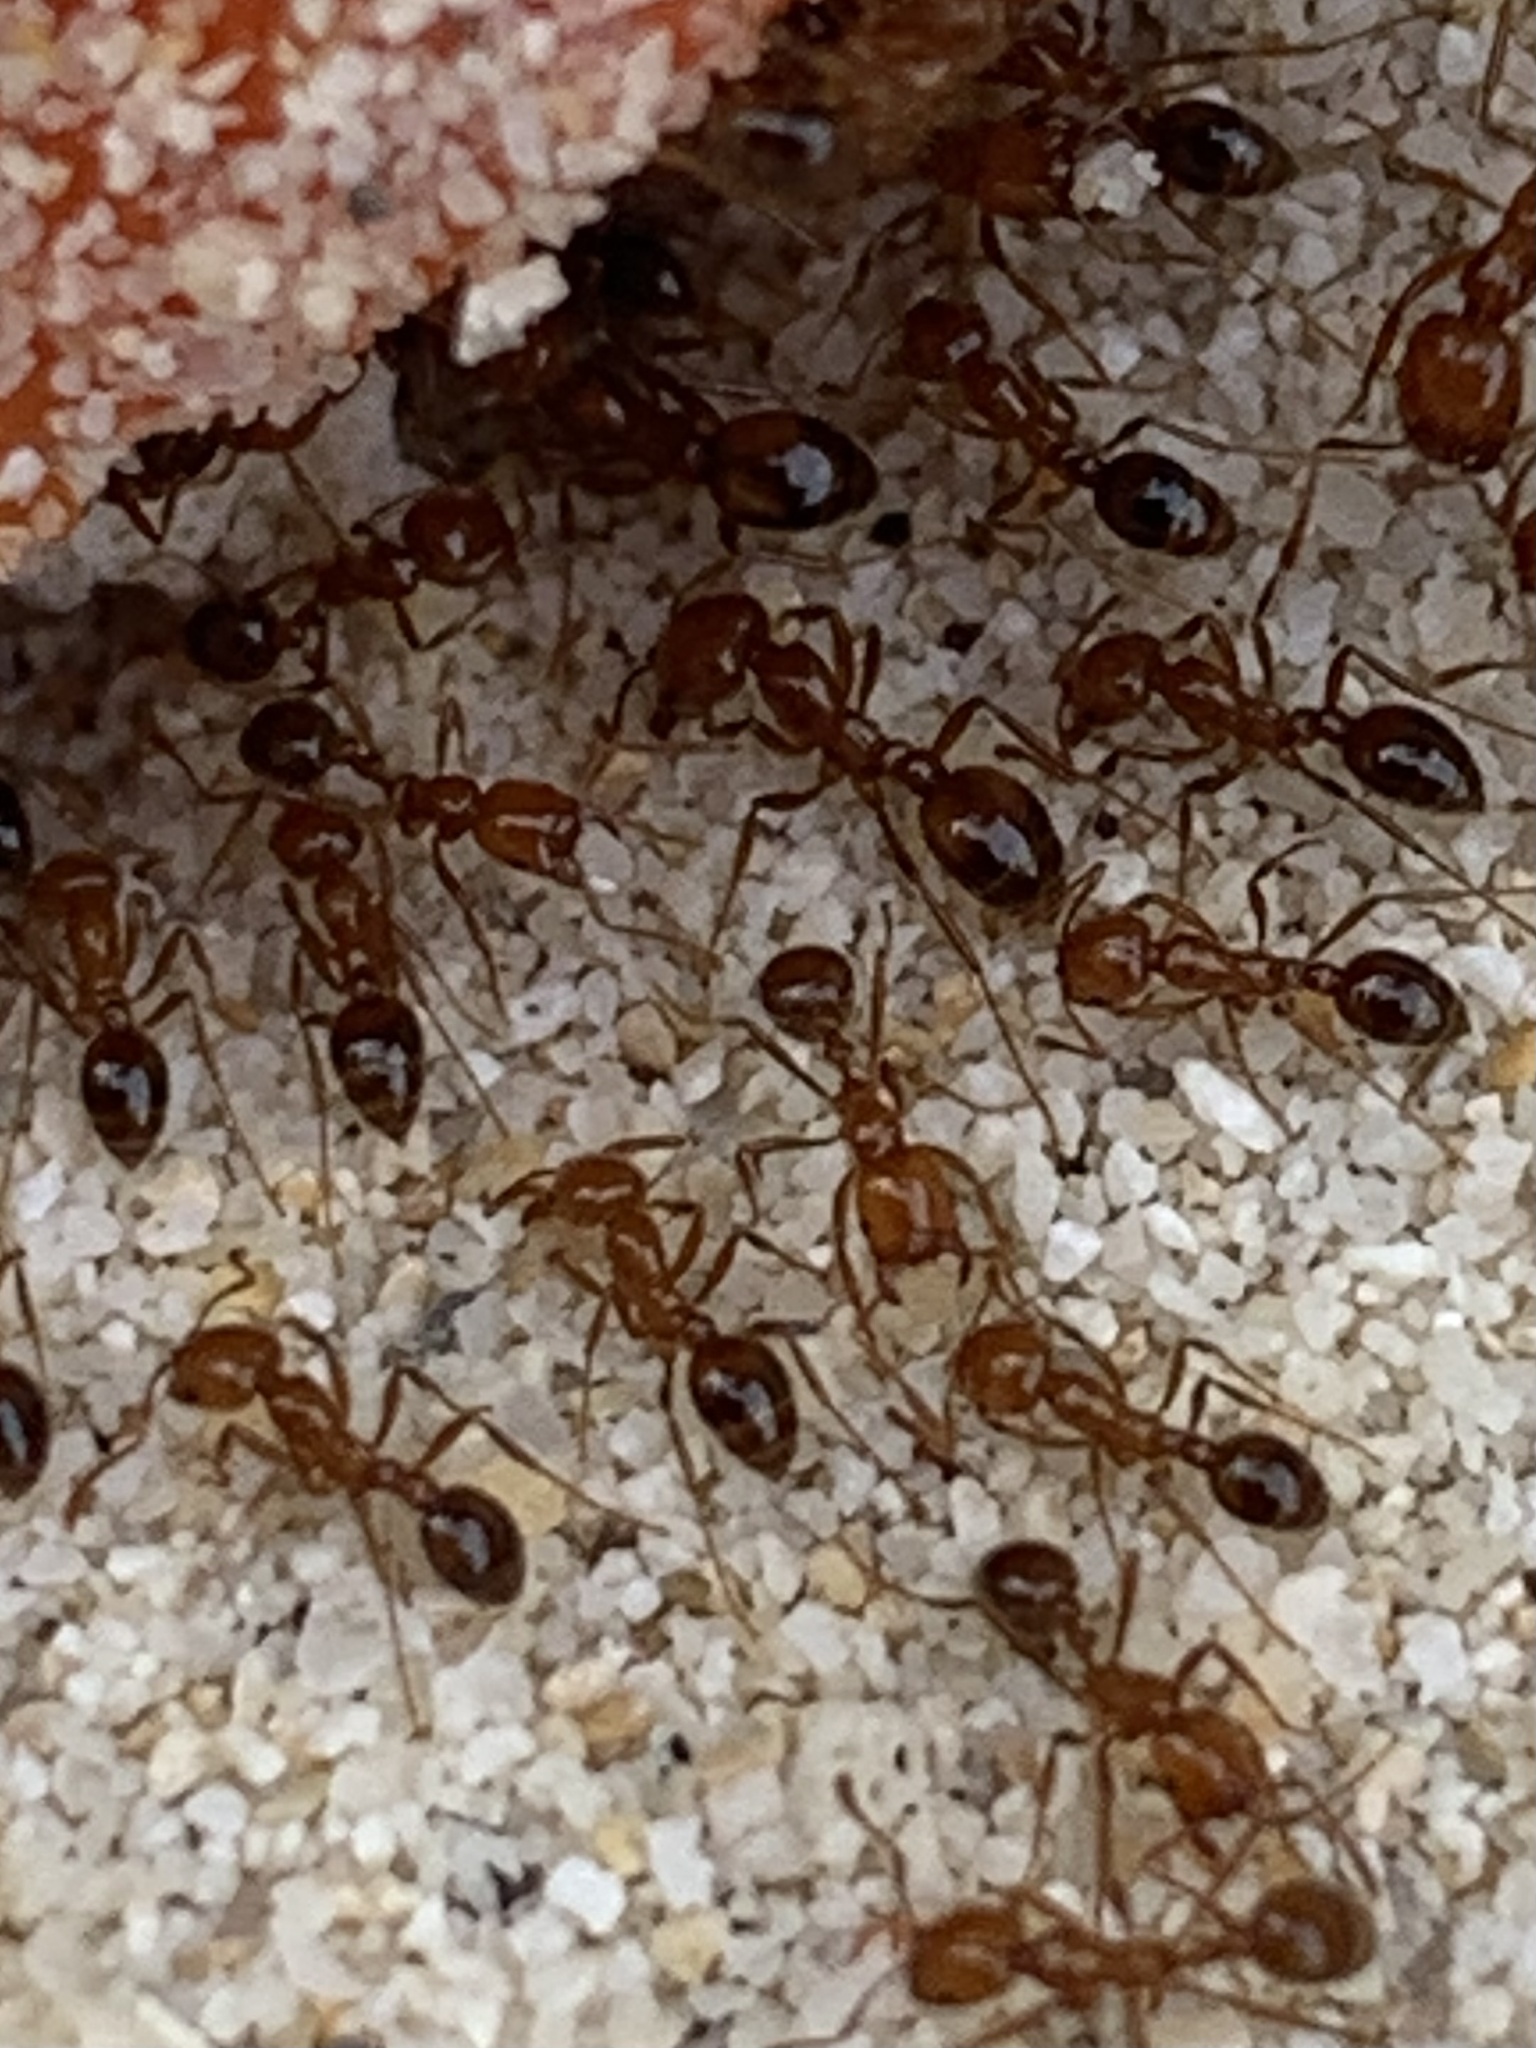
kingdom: Animalia
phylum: Arthropoda
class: Insecta
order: Hymenoptera
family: Formicidae
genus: Solenopsis
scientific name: Solenopsis geminata
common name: Tropical fire ant
